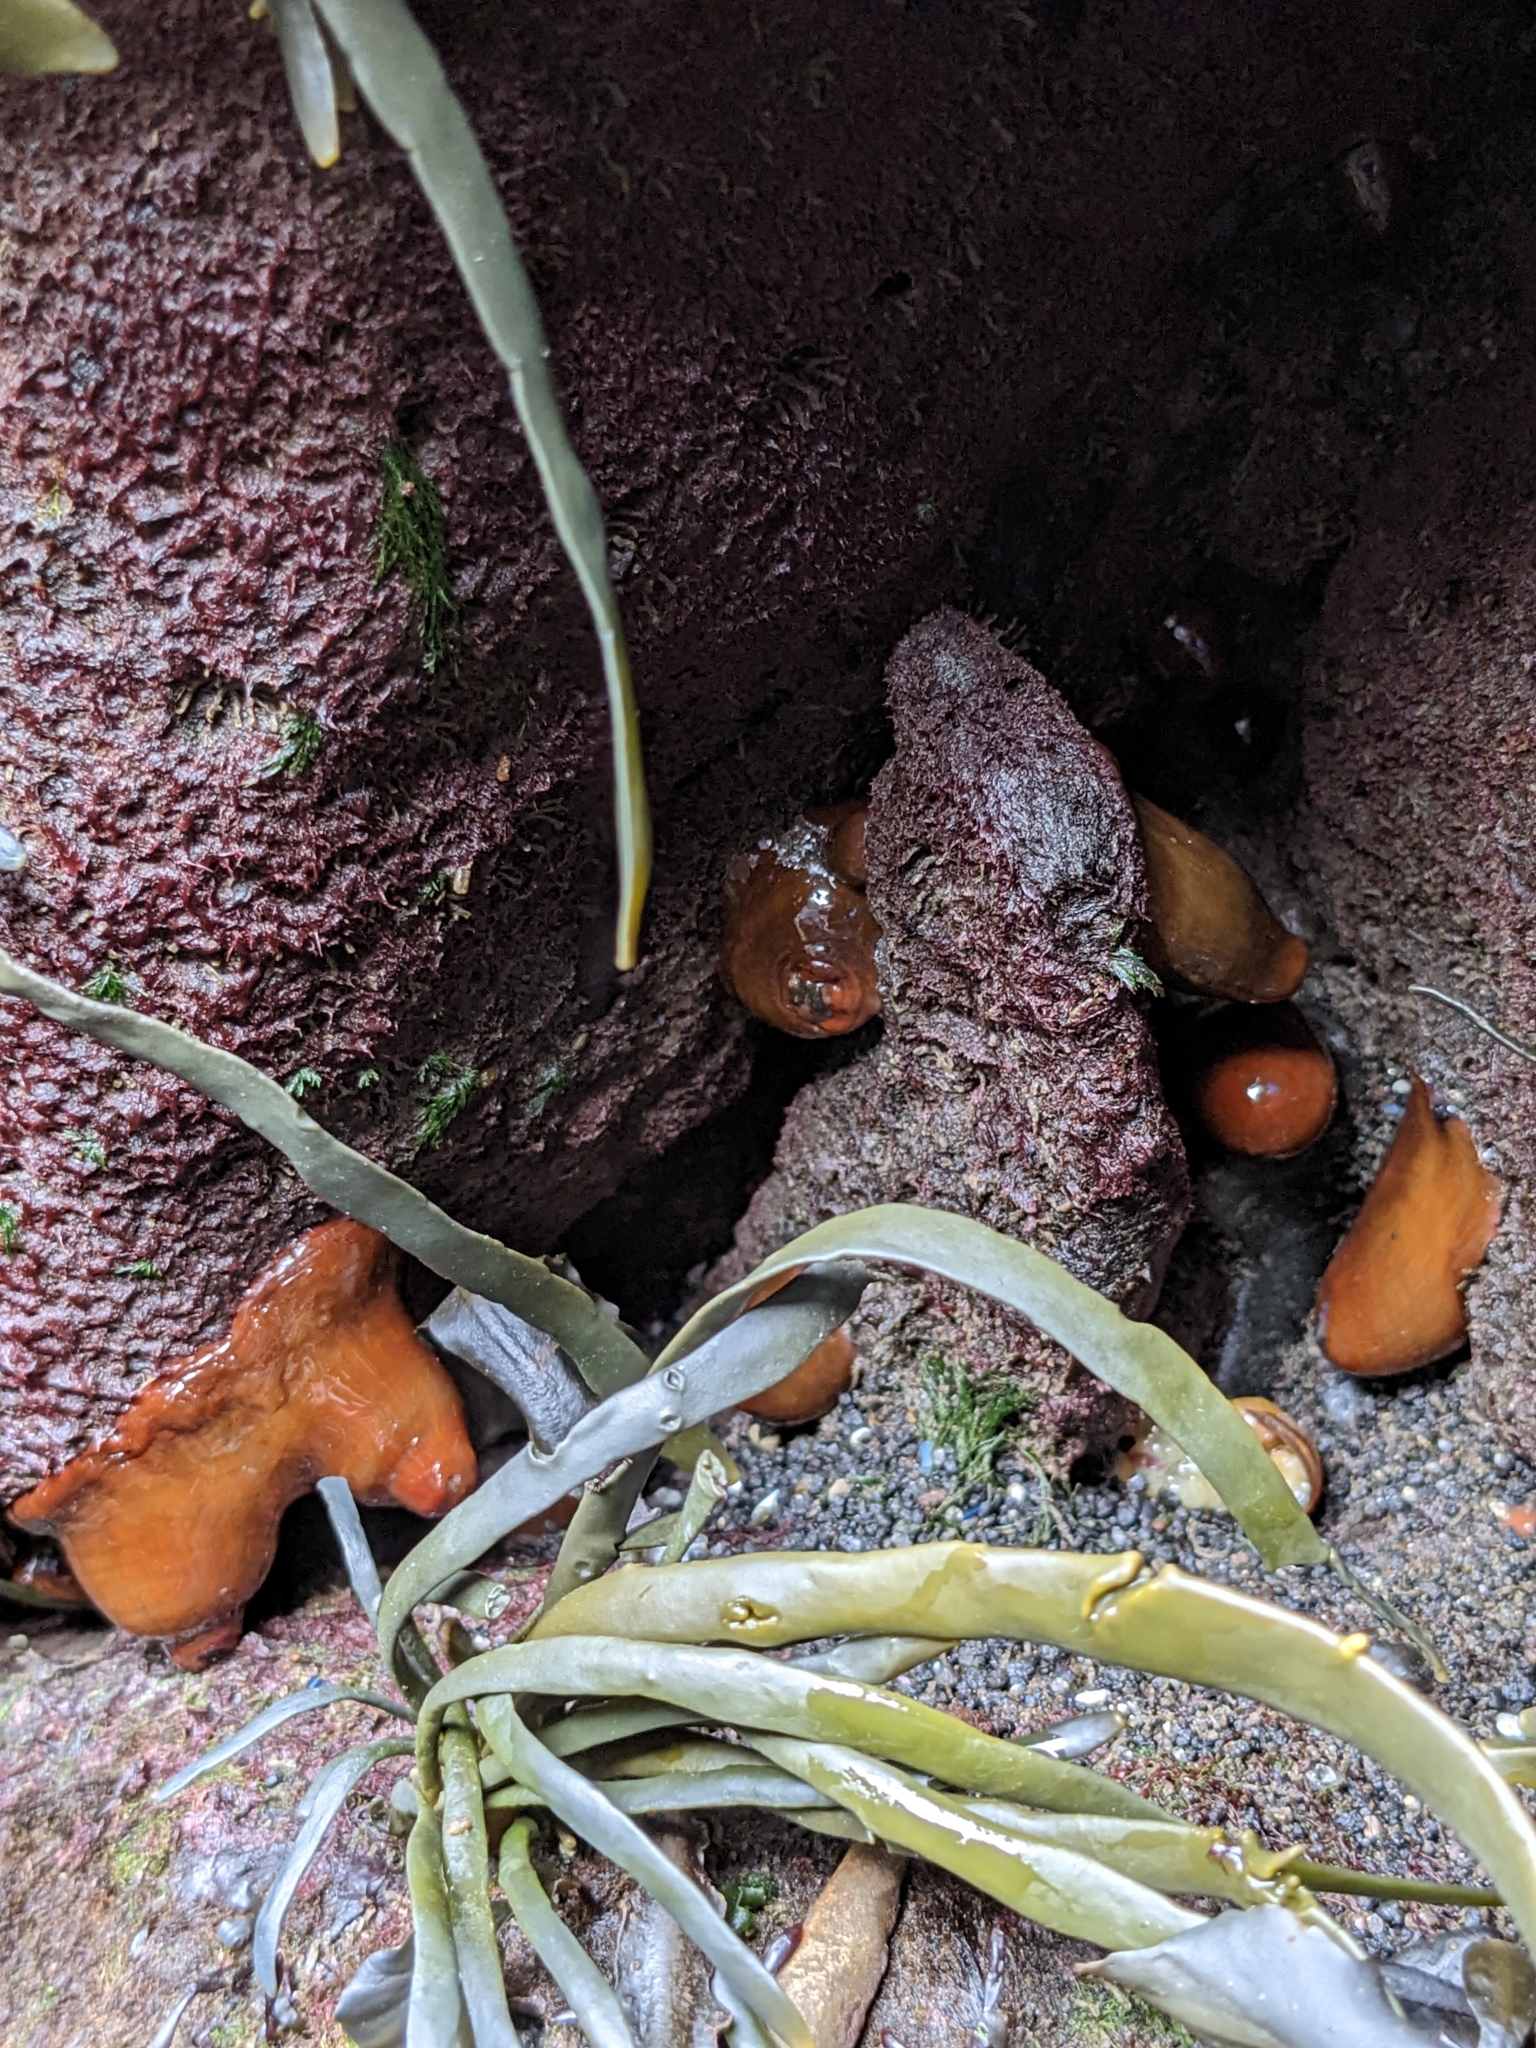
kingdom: Animalia
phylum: Cnidaria
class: Anthozoa
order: Actiniaria
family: Metridiidae
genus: Metridium
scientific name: Metridium senile
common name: Clonal plumose anemone
